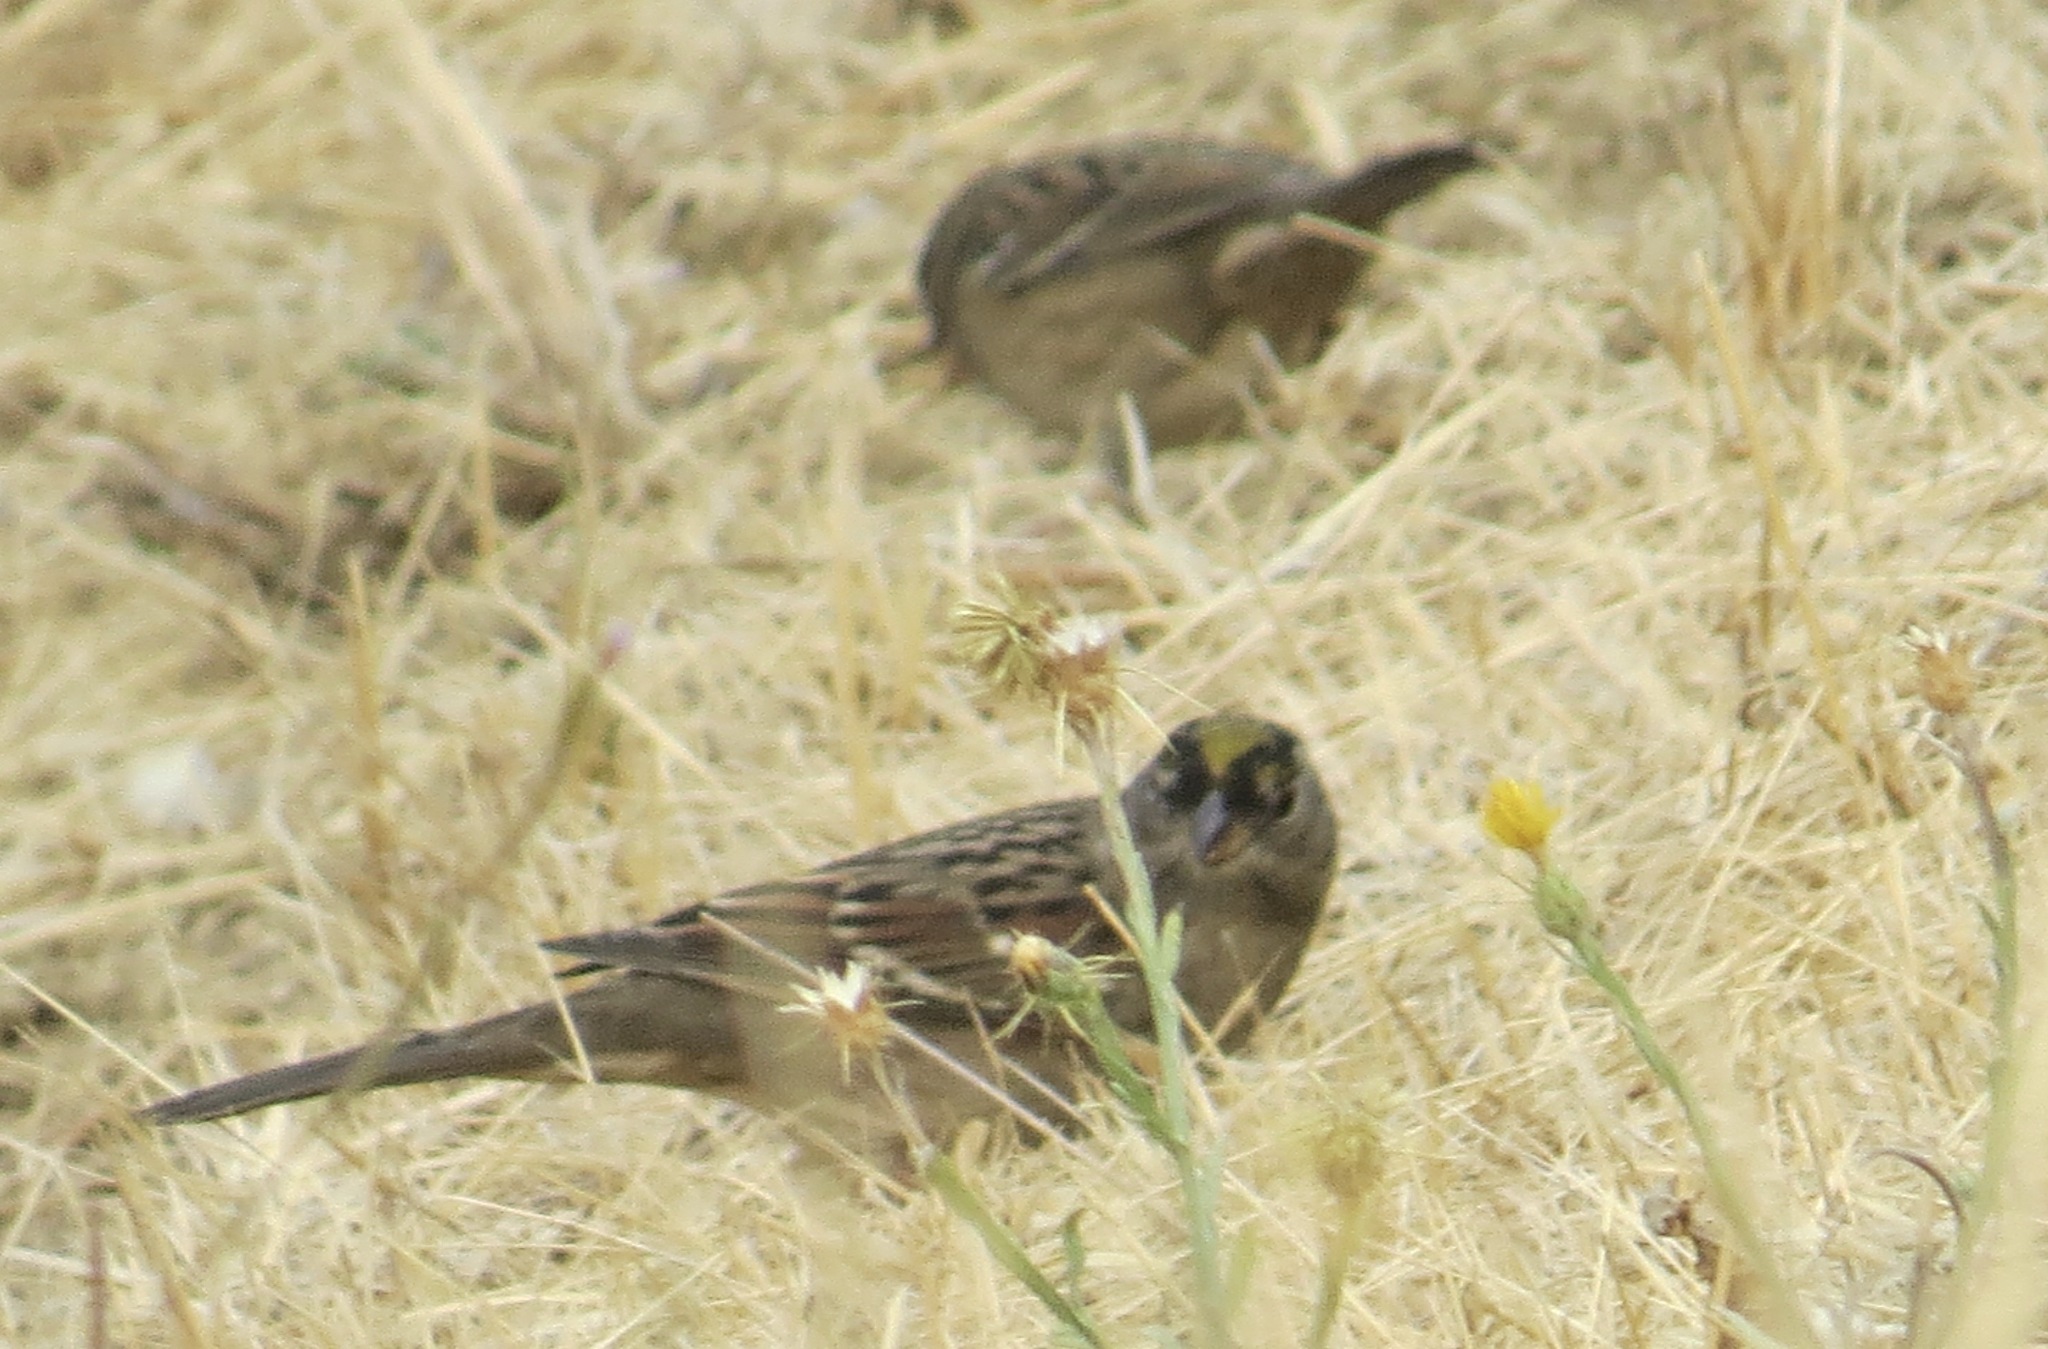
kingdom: Animalia
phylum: Chordata
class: Aves
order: Passeriformes
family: Passerellidae
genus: Zonotrichia
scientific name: Zonotrichia atricapilla
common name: Golden-crowned sparrow
